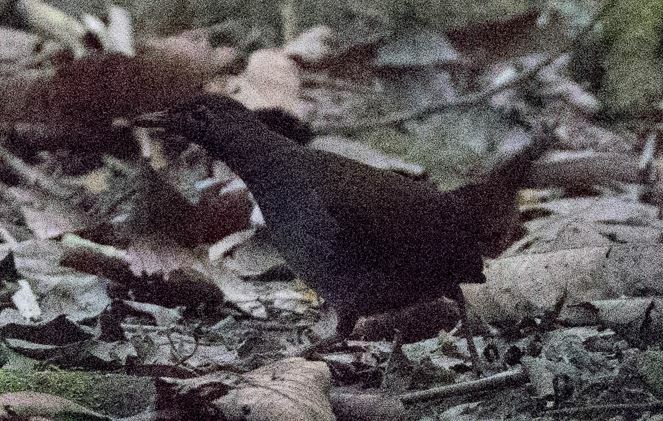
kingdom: Animalia
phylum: Chordata
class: Aves
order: Passeriformes
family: Formicariidae
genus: Formicarius
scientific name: Formicarius analis
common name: Black-faced antthrush
